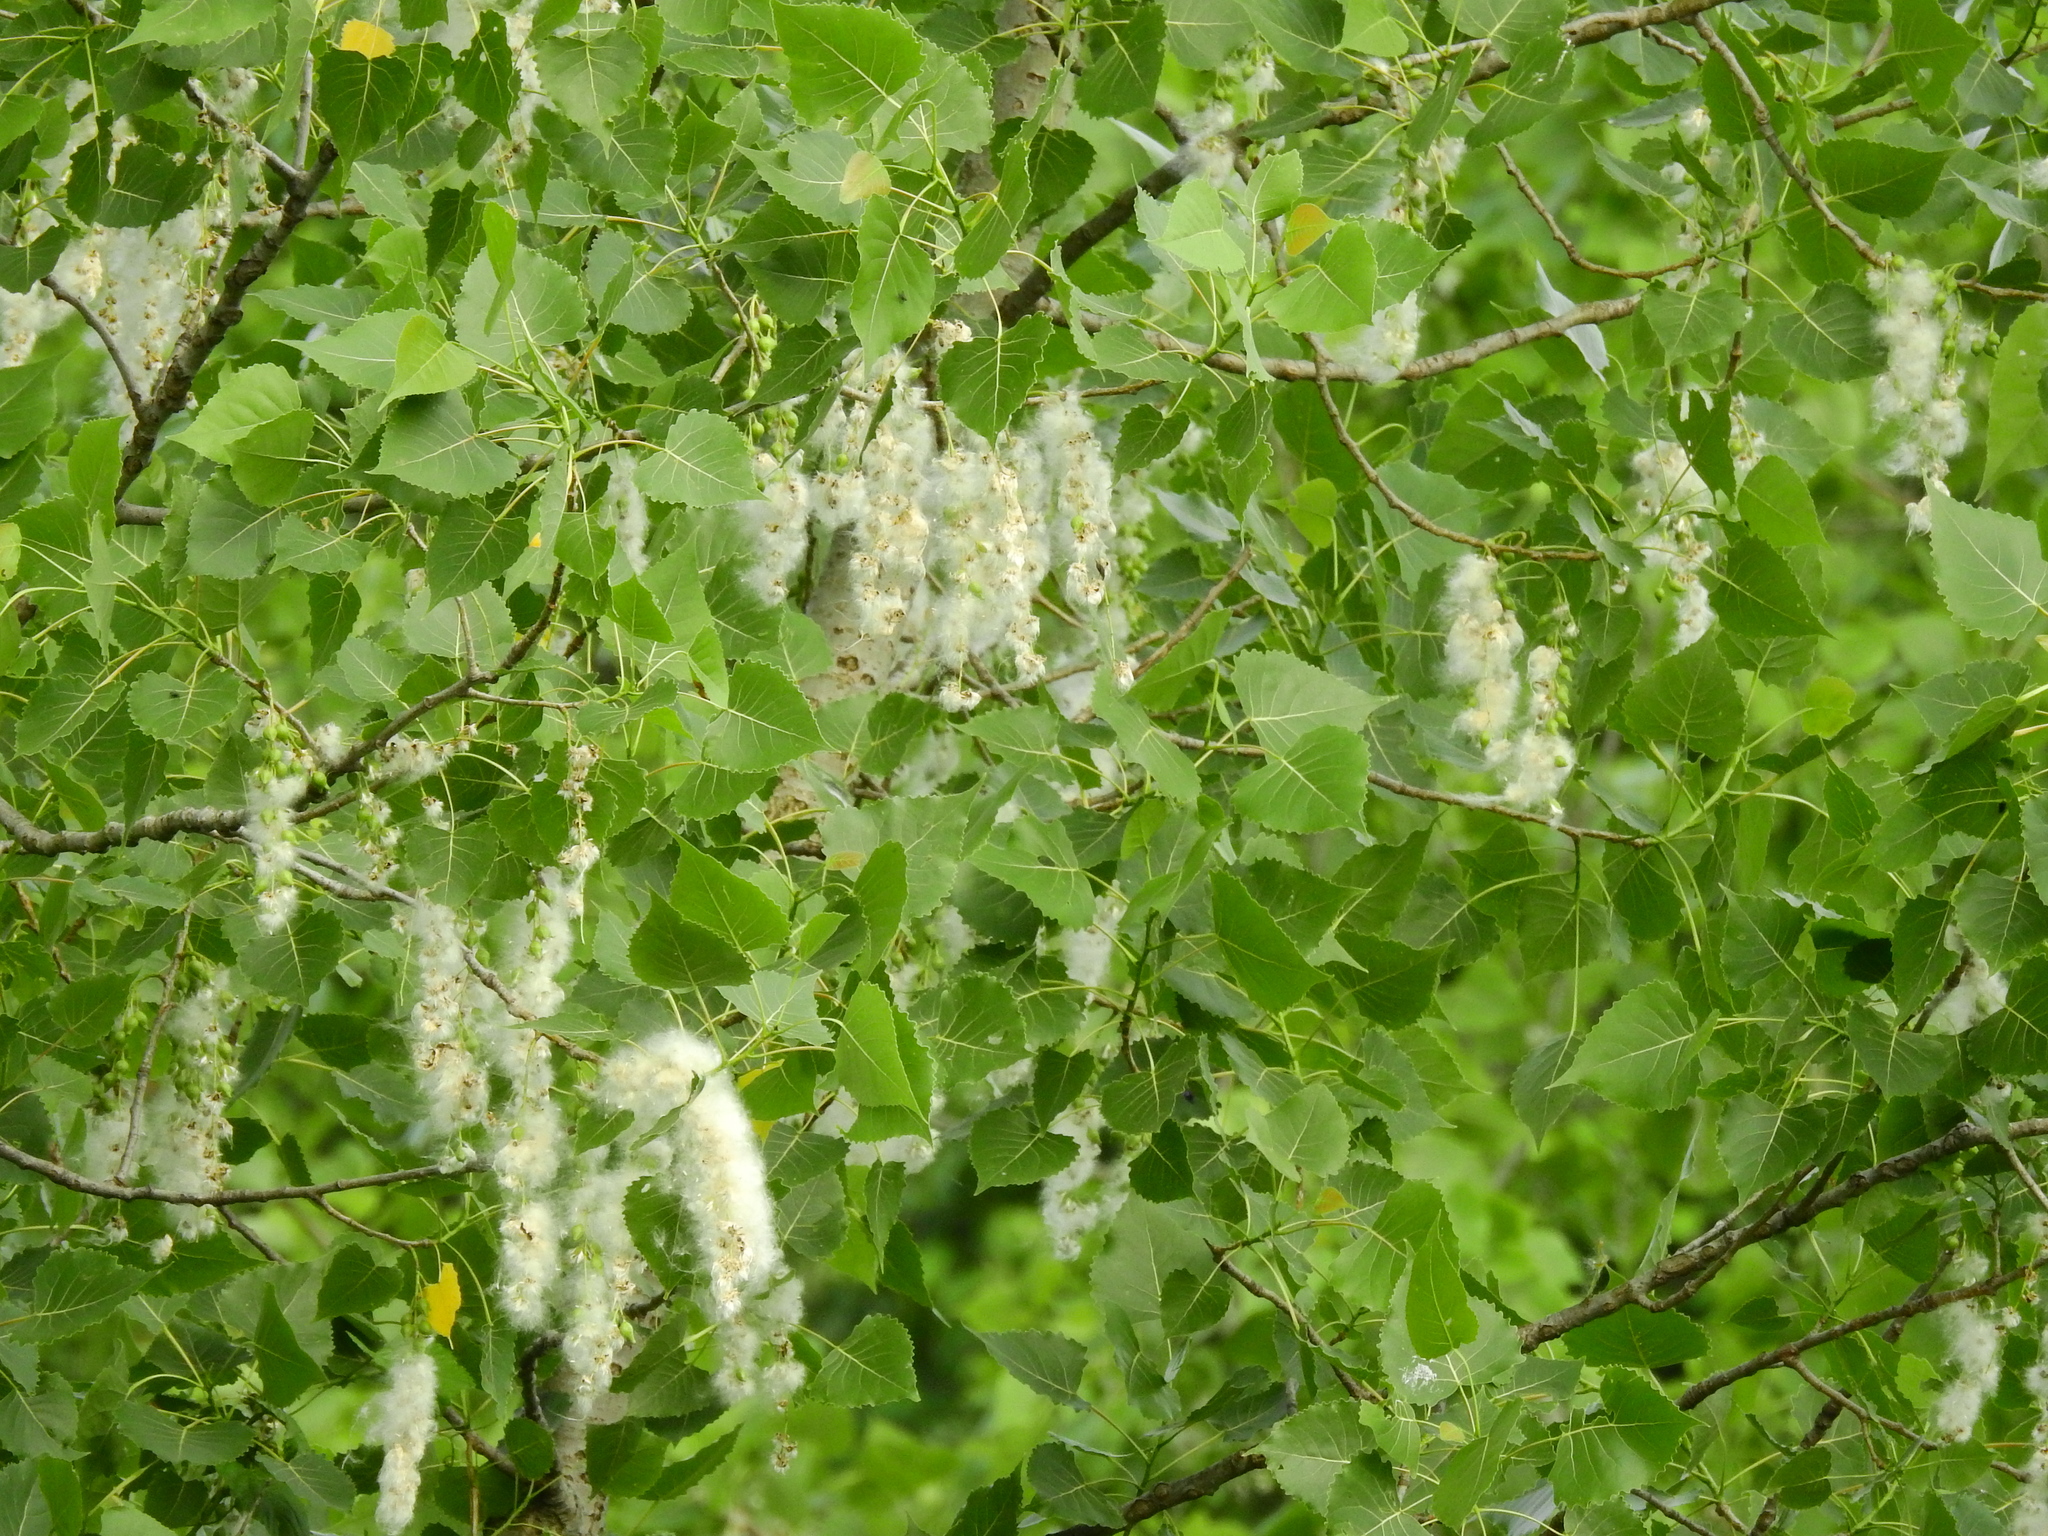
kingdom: Plantae
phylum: Tracheophyta
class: Magnoliopsida
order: Malpighiales
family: Salicaceae
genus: Populus
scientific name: Populus deltoides
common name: Eastern cottonwood
